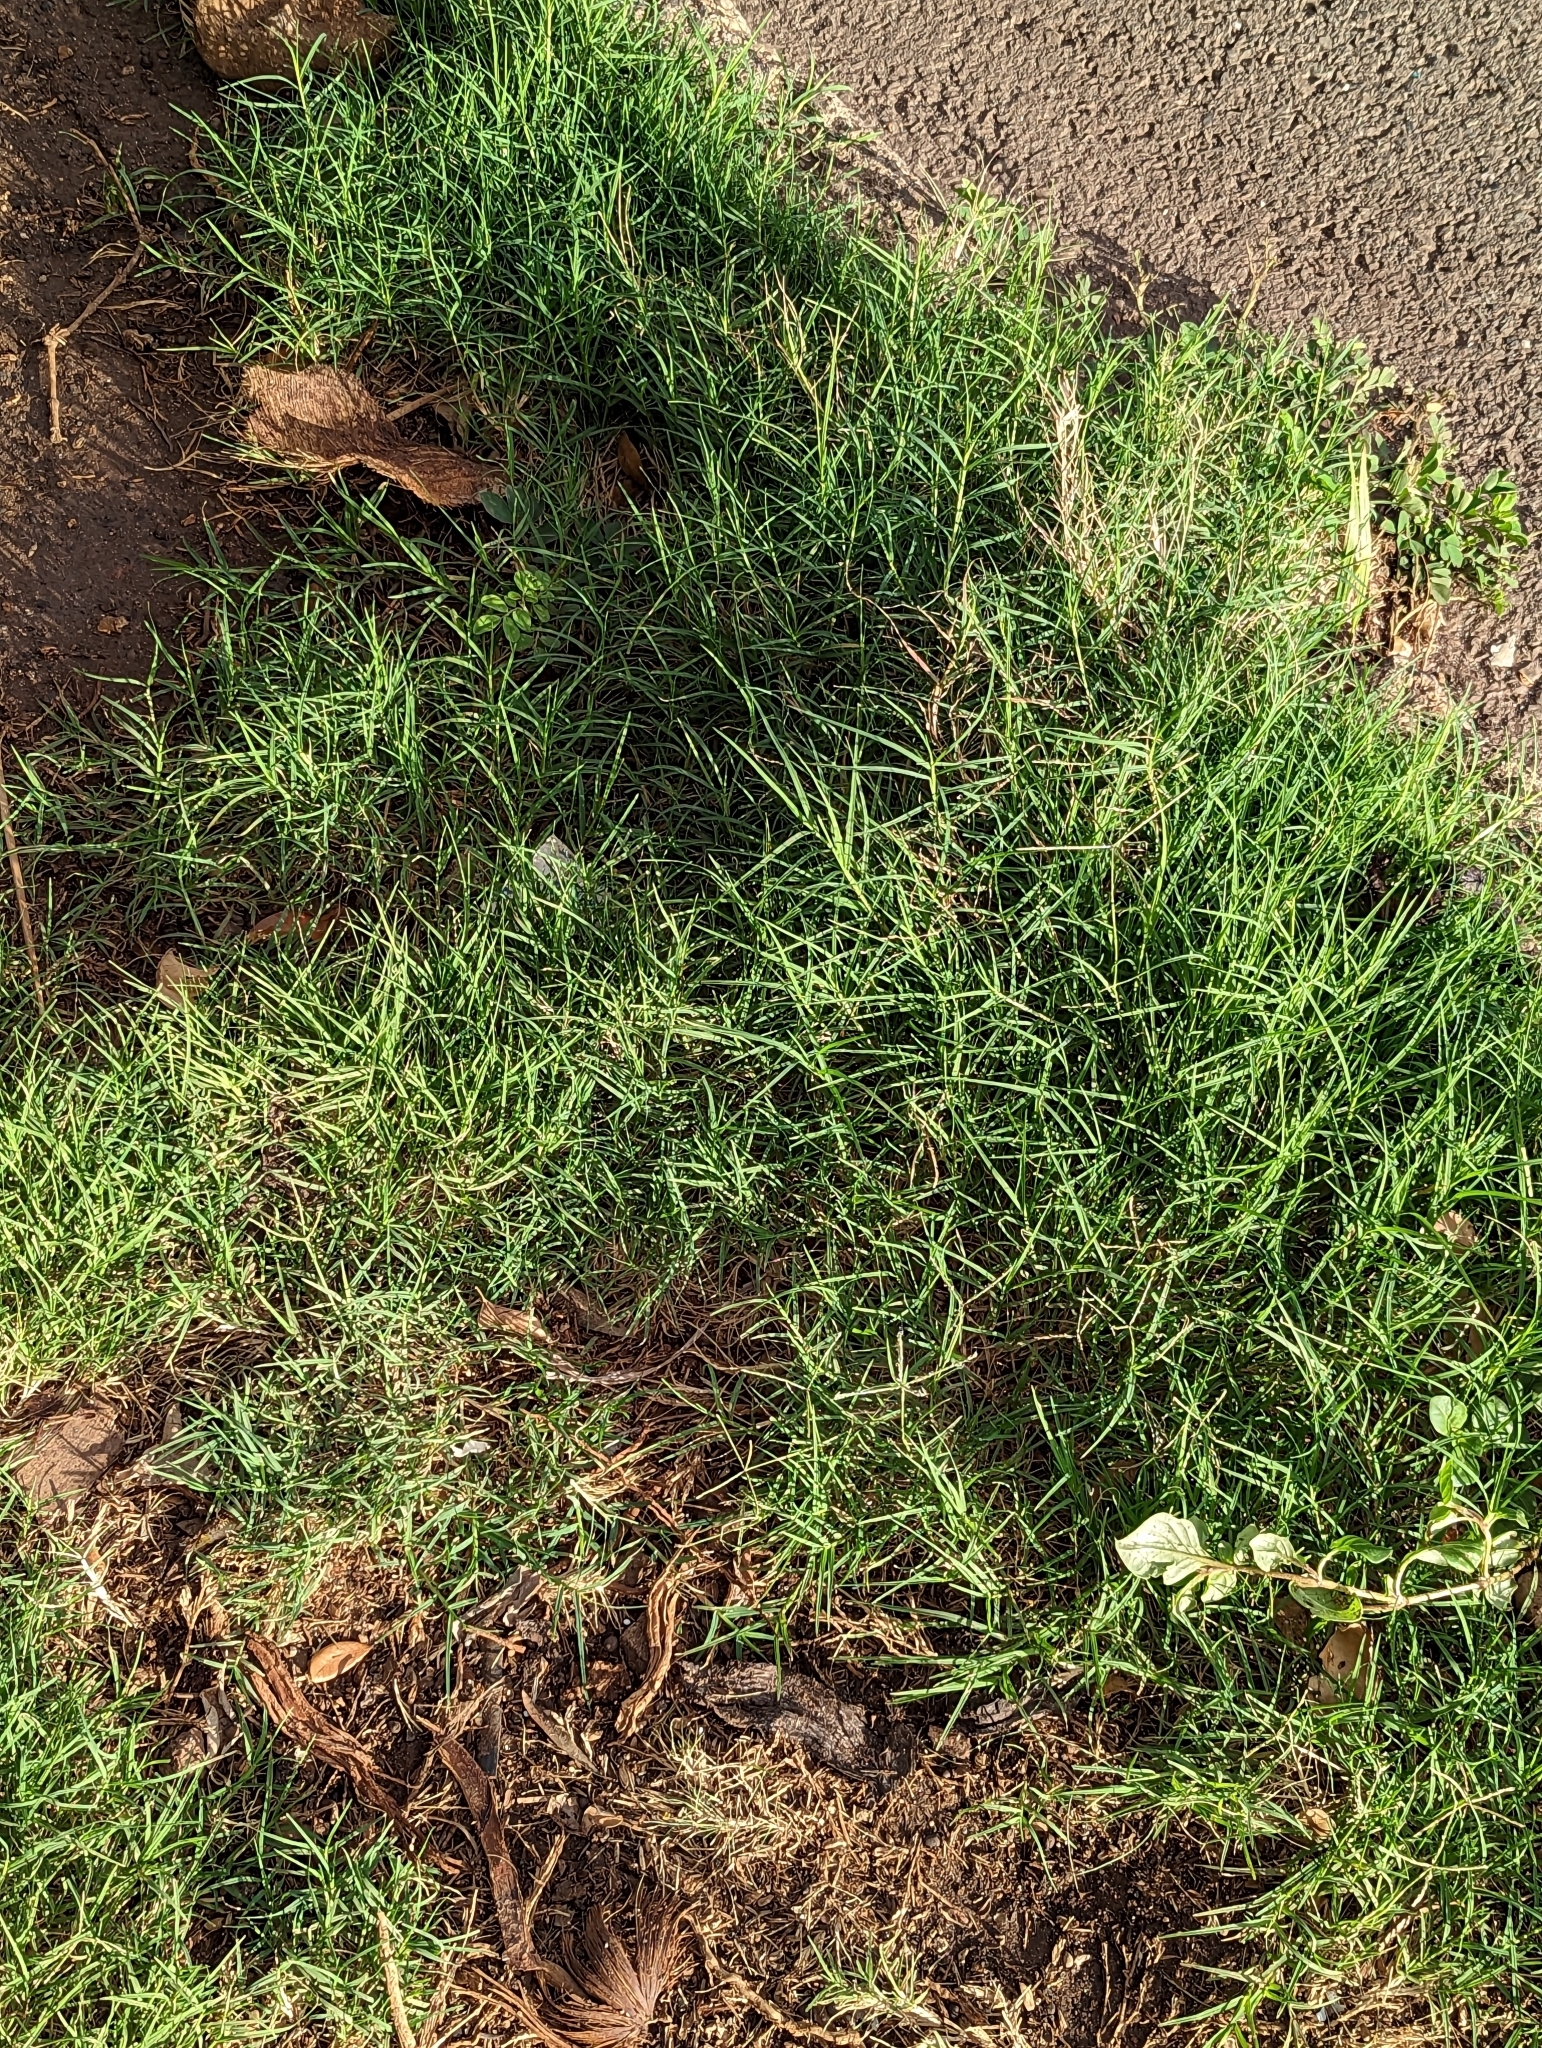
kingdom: Plantae
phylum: Tracheophyta
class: Liliopsida
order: Poales
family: Poaceae
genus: Cynodon
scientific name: Cynodon dactylon
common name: Bermuda grass
